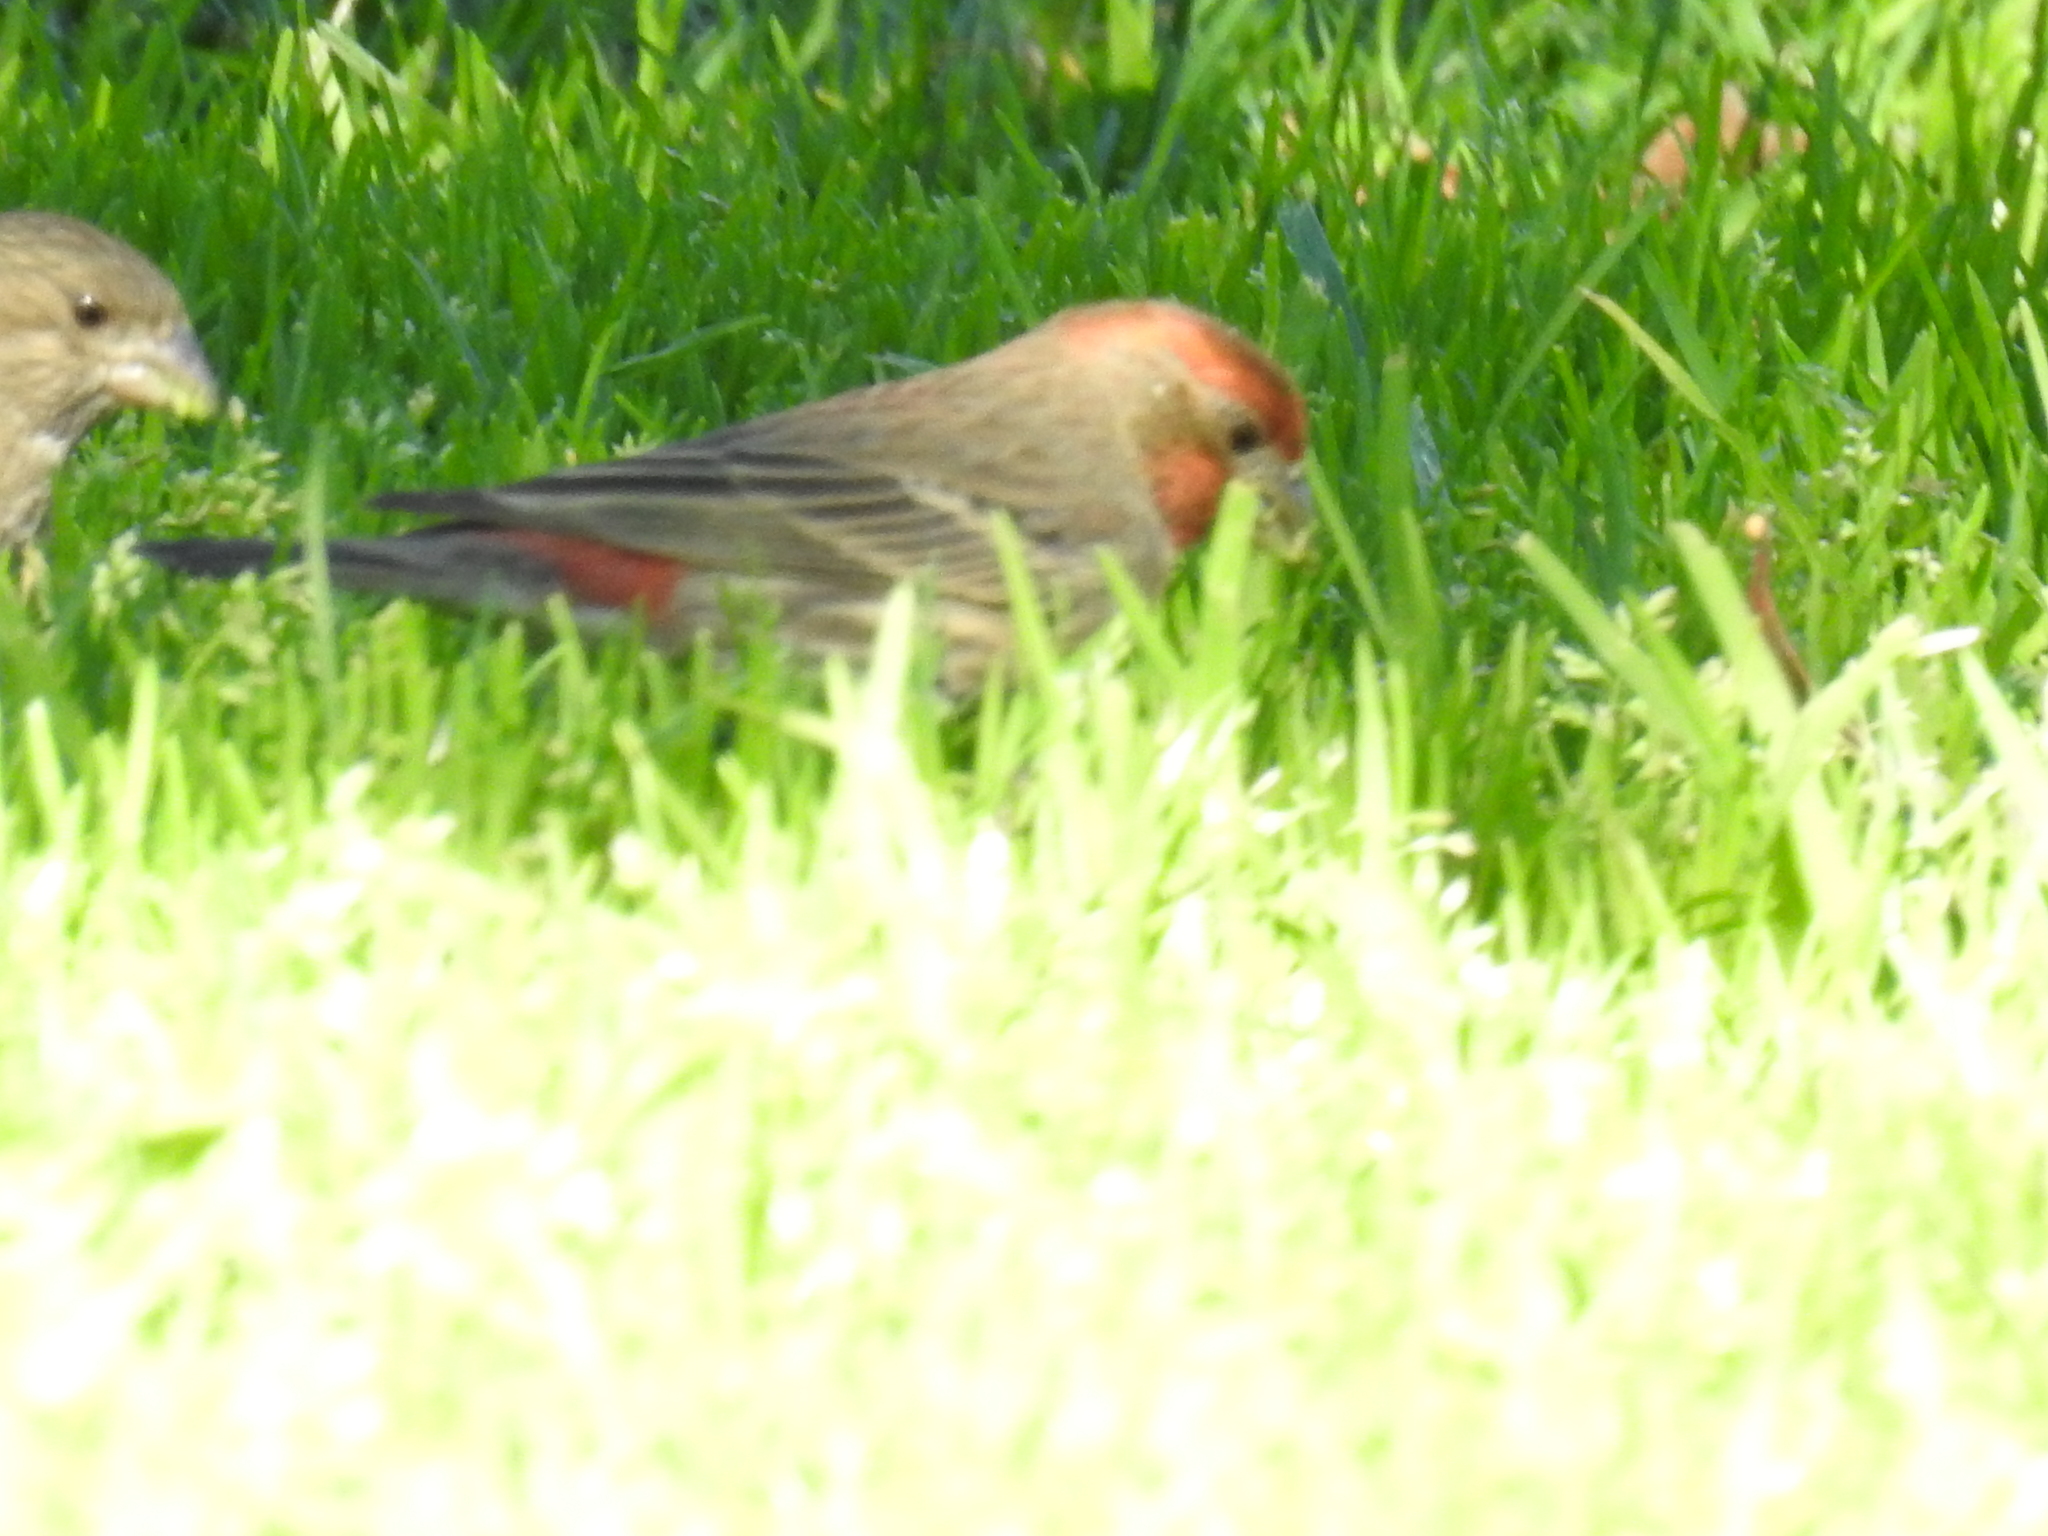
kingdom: Animalia
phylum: Chordata
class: Aves
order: Passeriformes
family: Fringillidae
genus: Haemorhous
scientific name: Haemorhous mexicanus
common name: House finch
